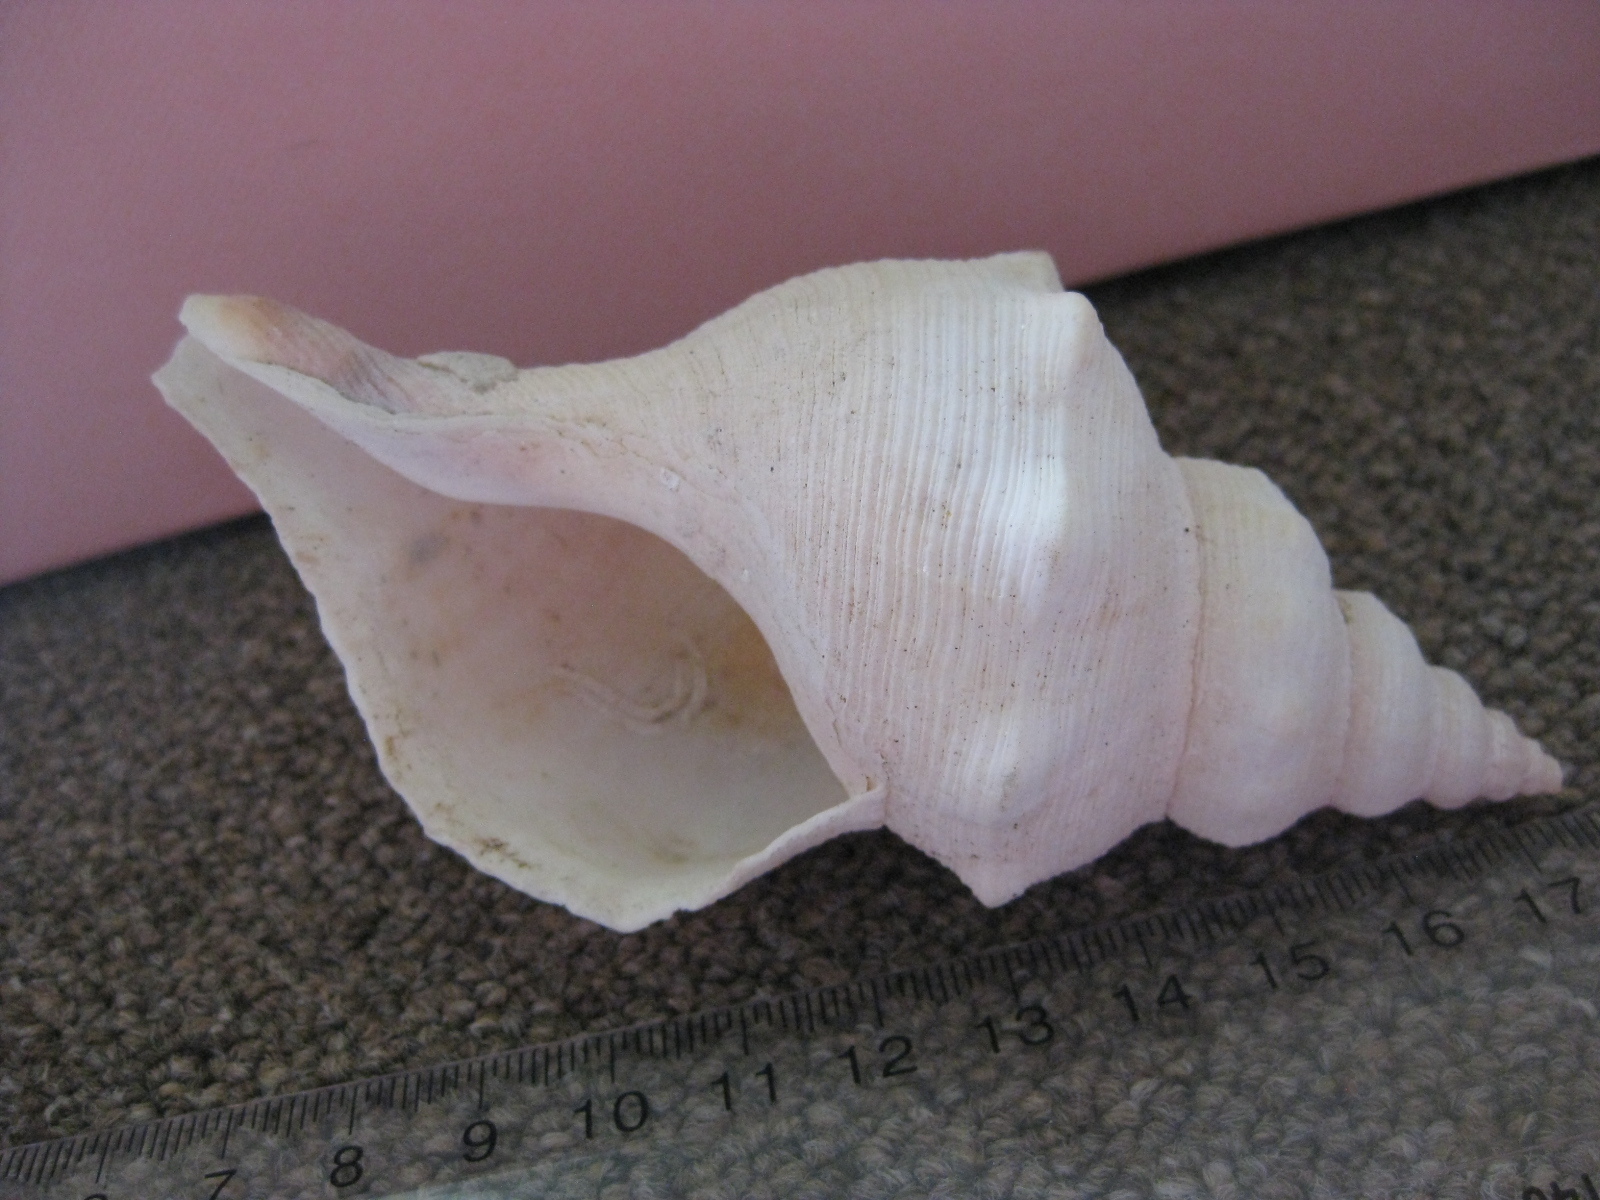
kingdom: Animalia
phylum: Mollusca
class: Gastropoda
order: Neogastropoda
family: Austrosiphonidae
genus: Penion
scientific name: Penion ormesi
